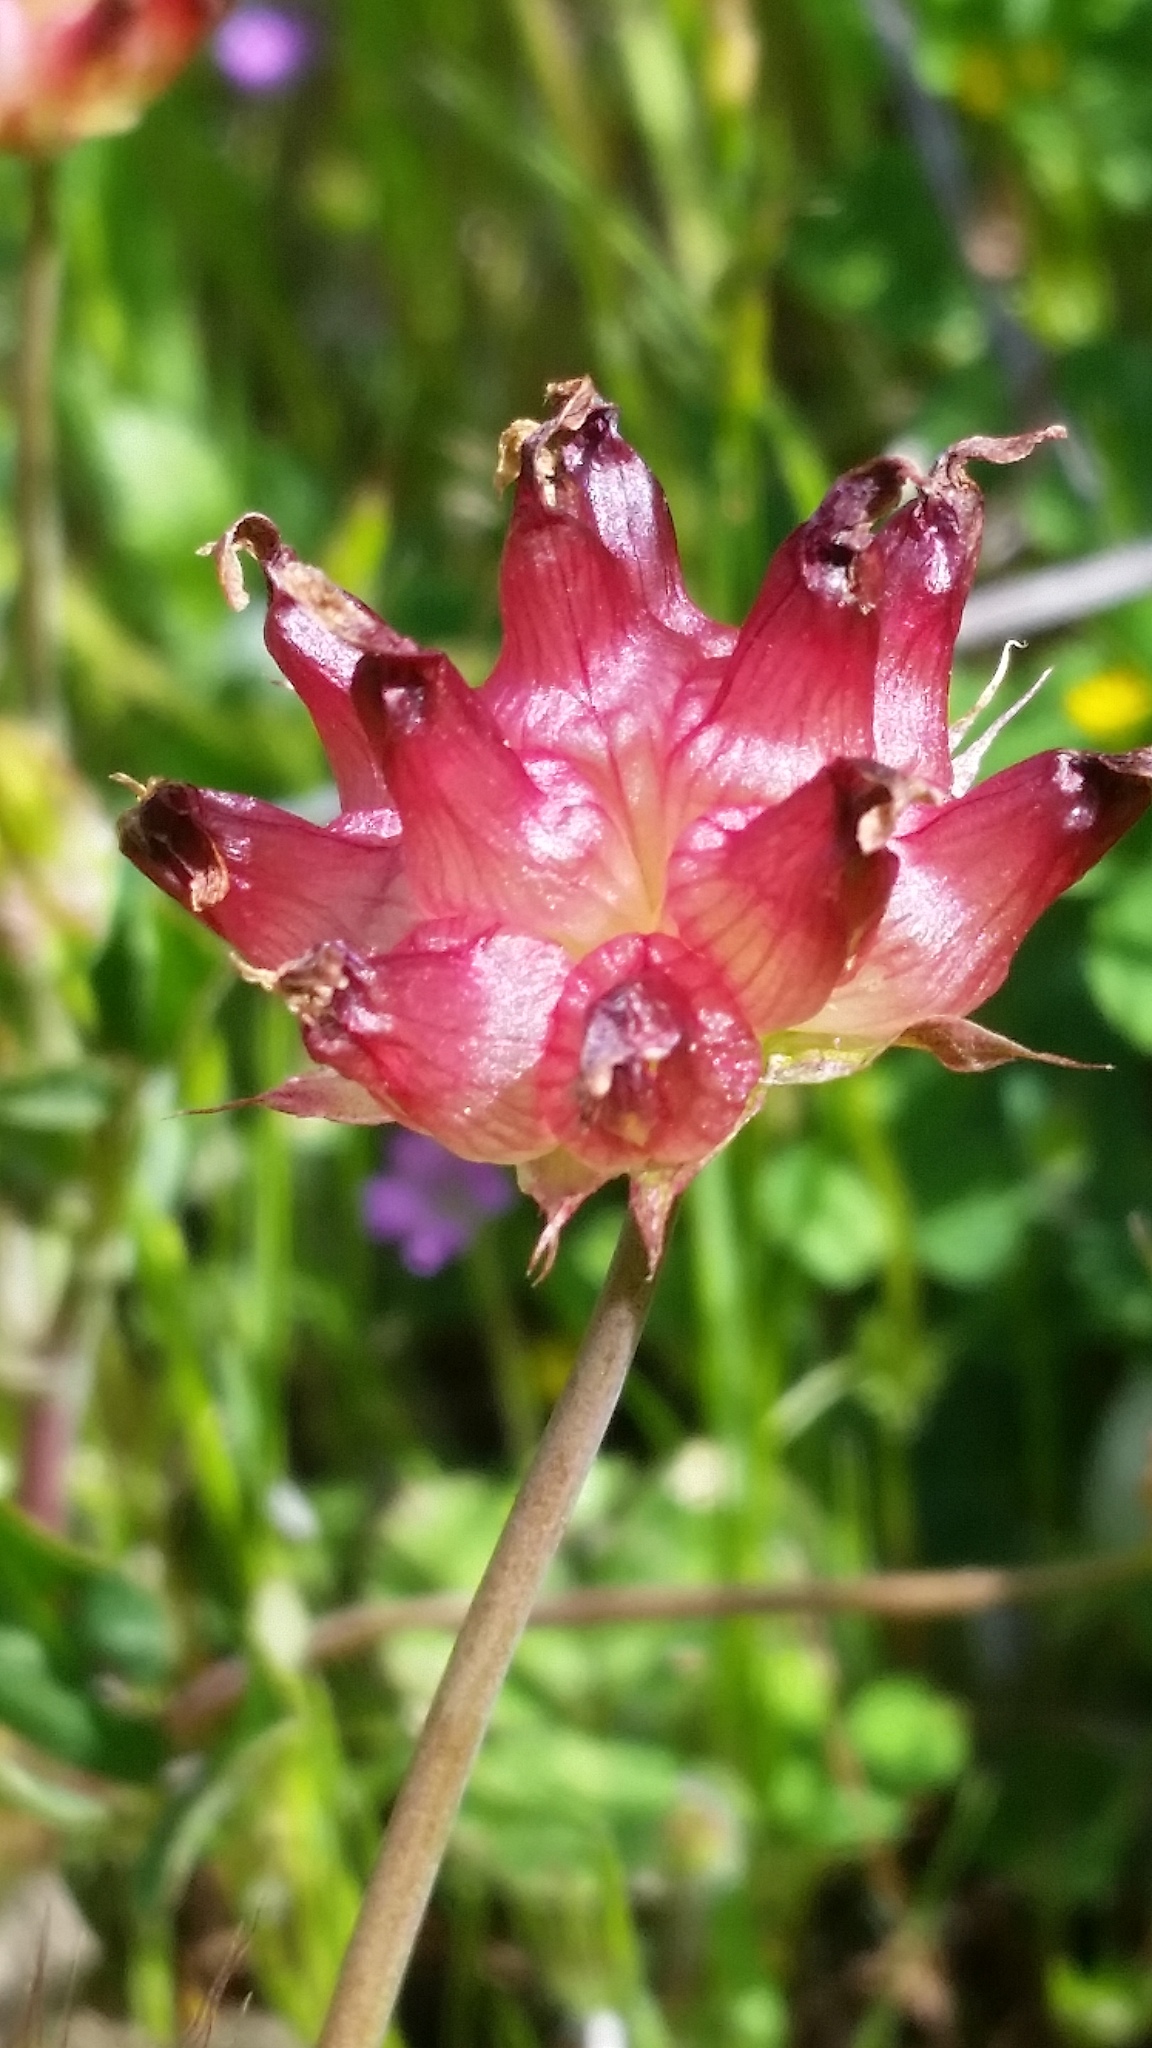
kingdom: Plantae
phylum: Tracheophyta
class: Magnoliopsida
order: Fabales
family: Fabaceae
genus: Trifolium
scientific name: Trifolium depauperatum
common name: Poverty clover
